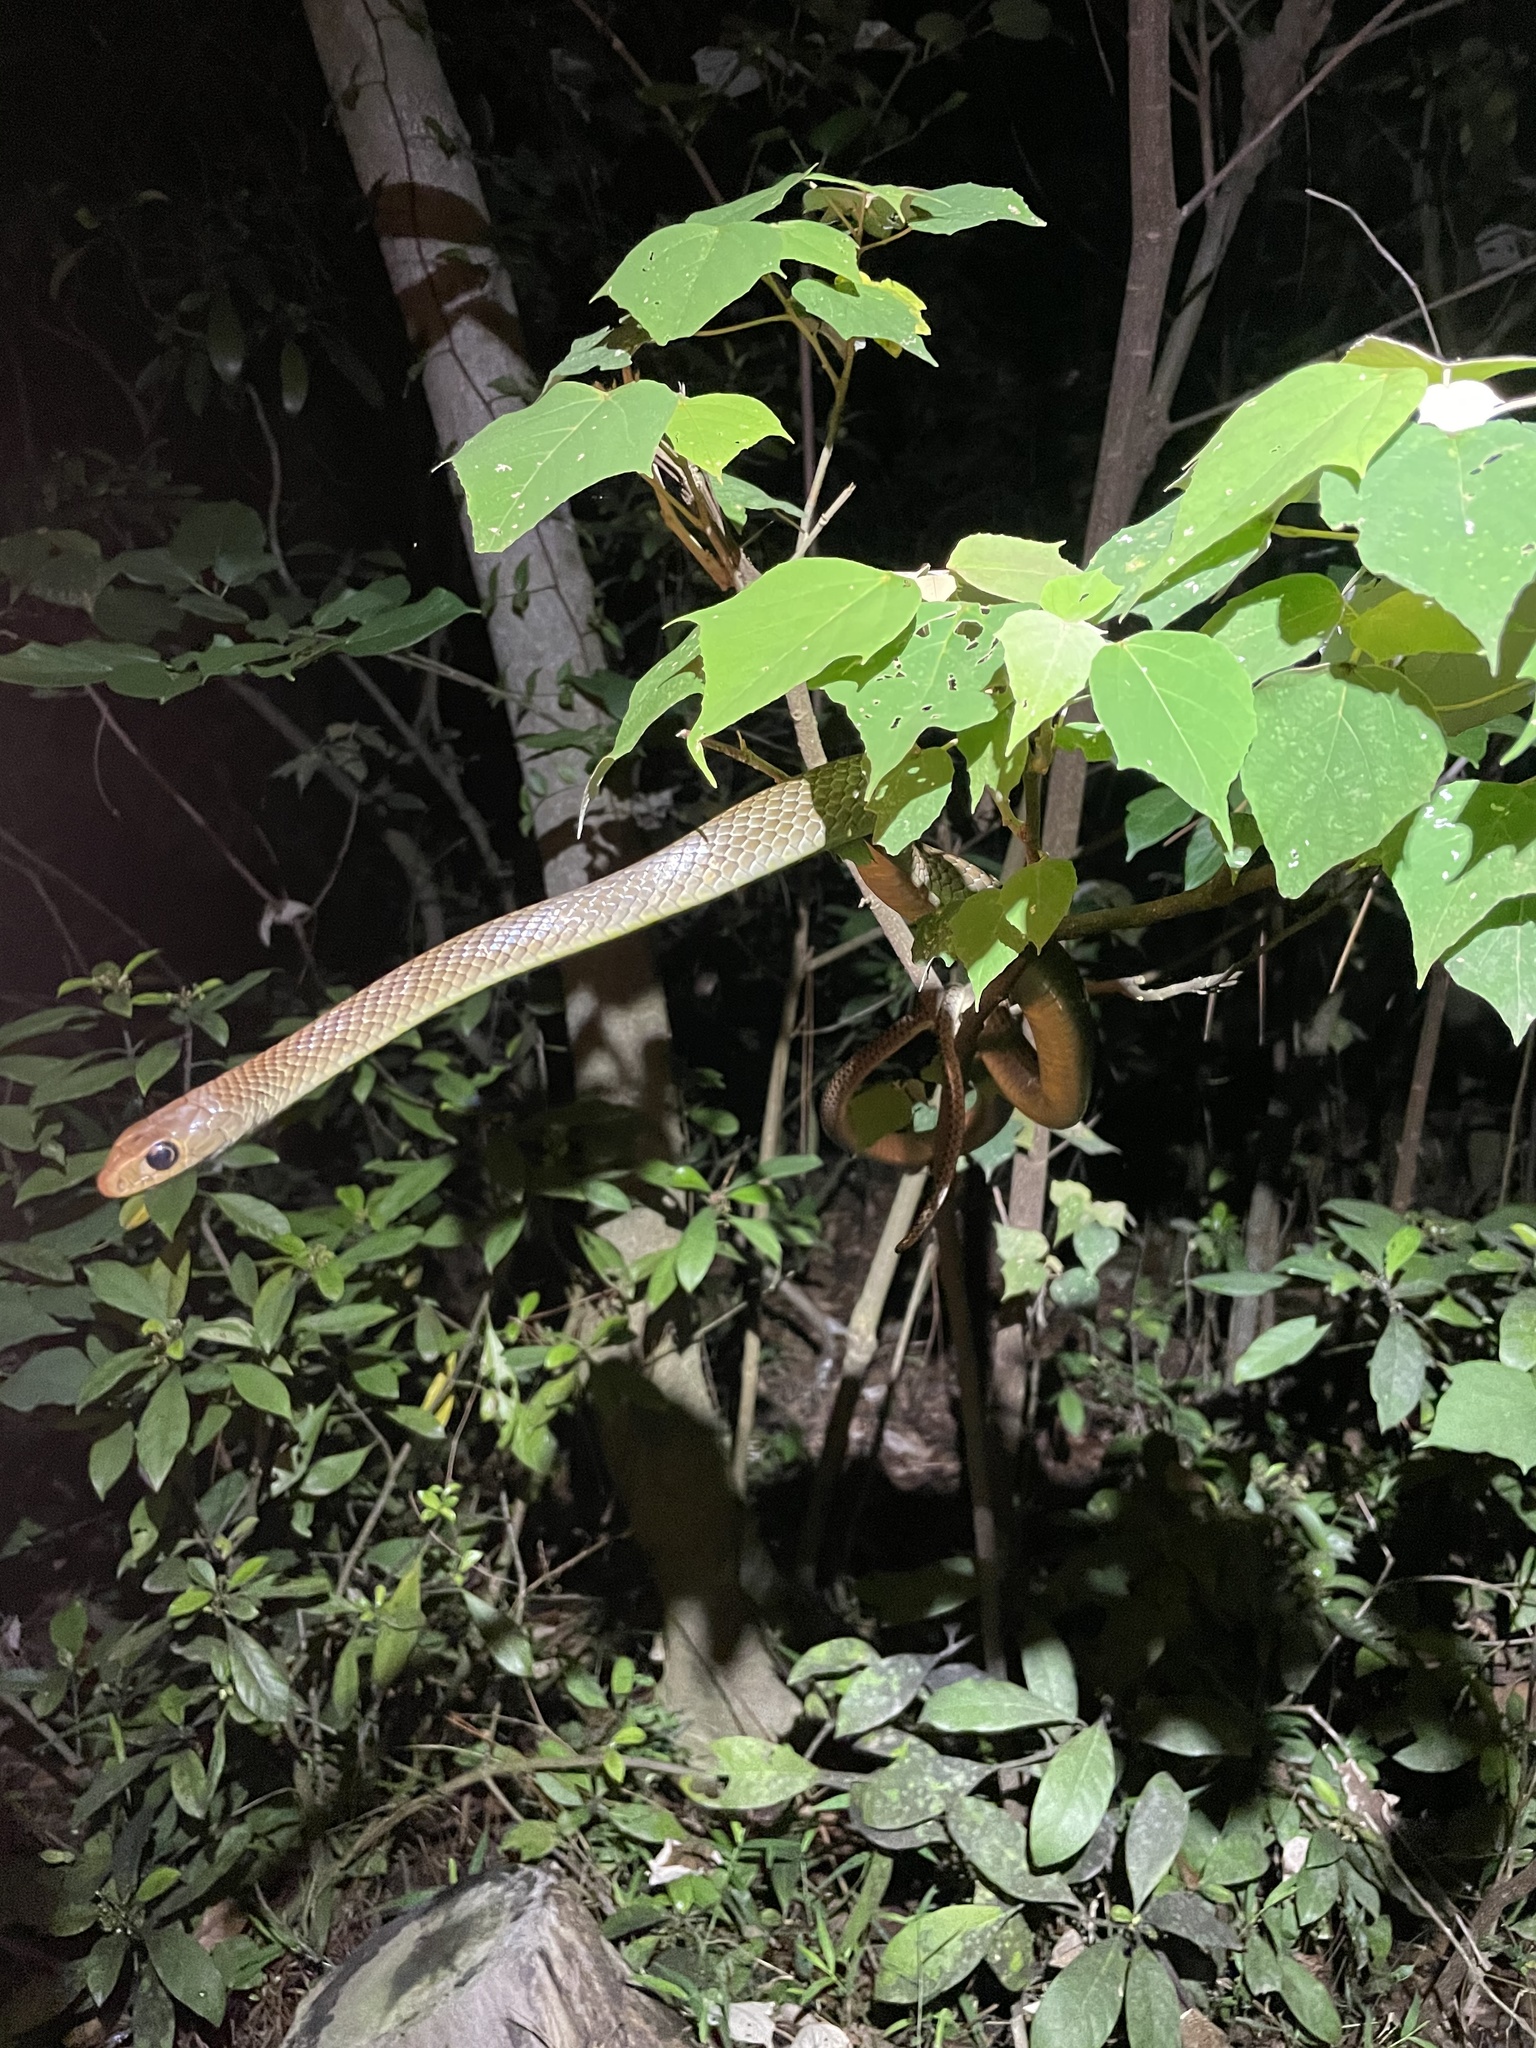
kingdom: Animalia
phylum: Chordata
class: Squamata
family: Colubridae
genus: Ptyas
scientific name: Ptyas korros
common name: Indo-chinese rat snake
